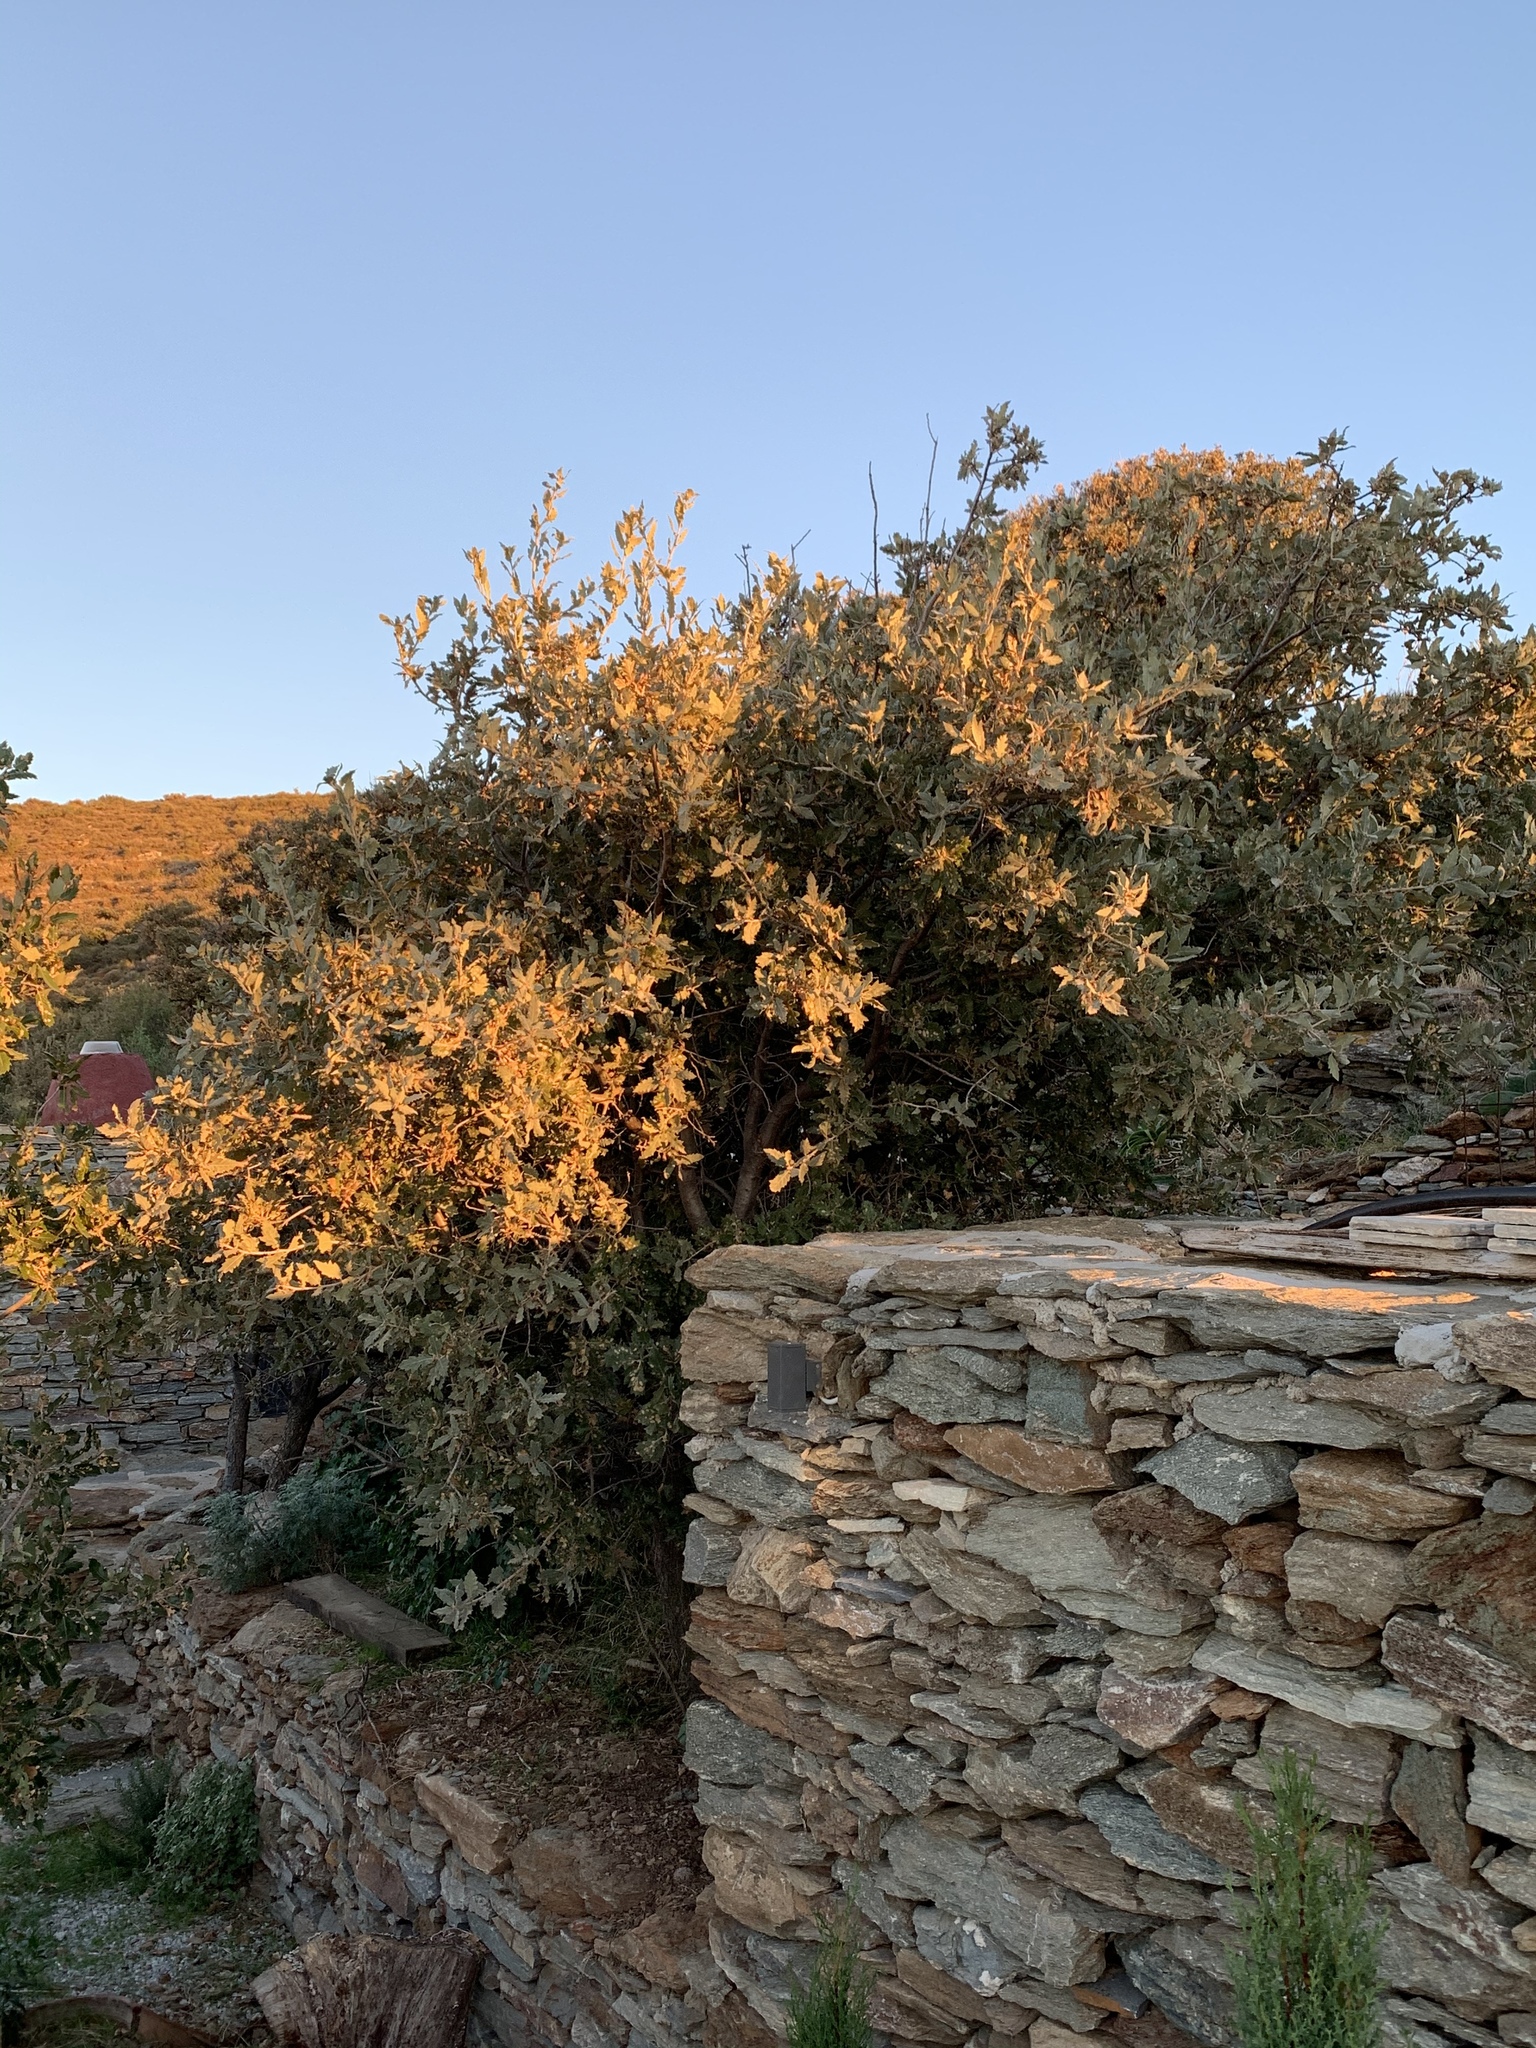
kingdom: Plantae
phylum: Tracheophyta
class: Magnoliopsida
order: Fagales
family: Fagaceae
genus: Quercus
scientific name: Quercus ithaburensis
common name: Tabor oak
